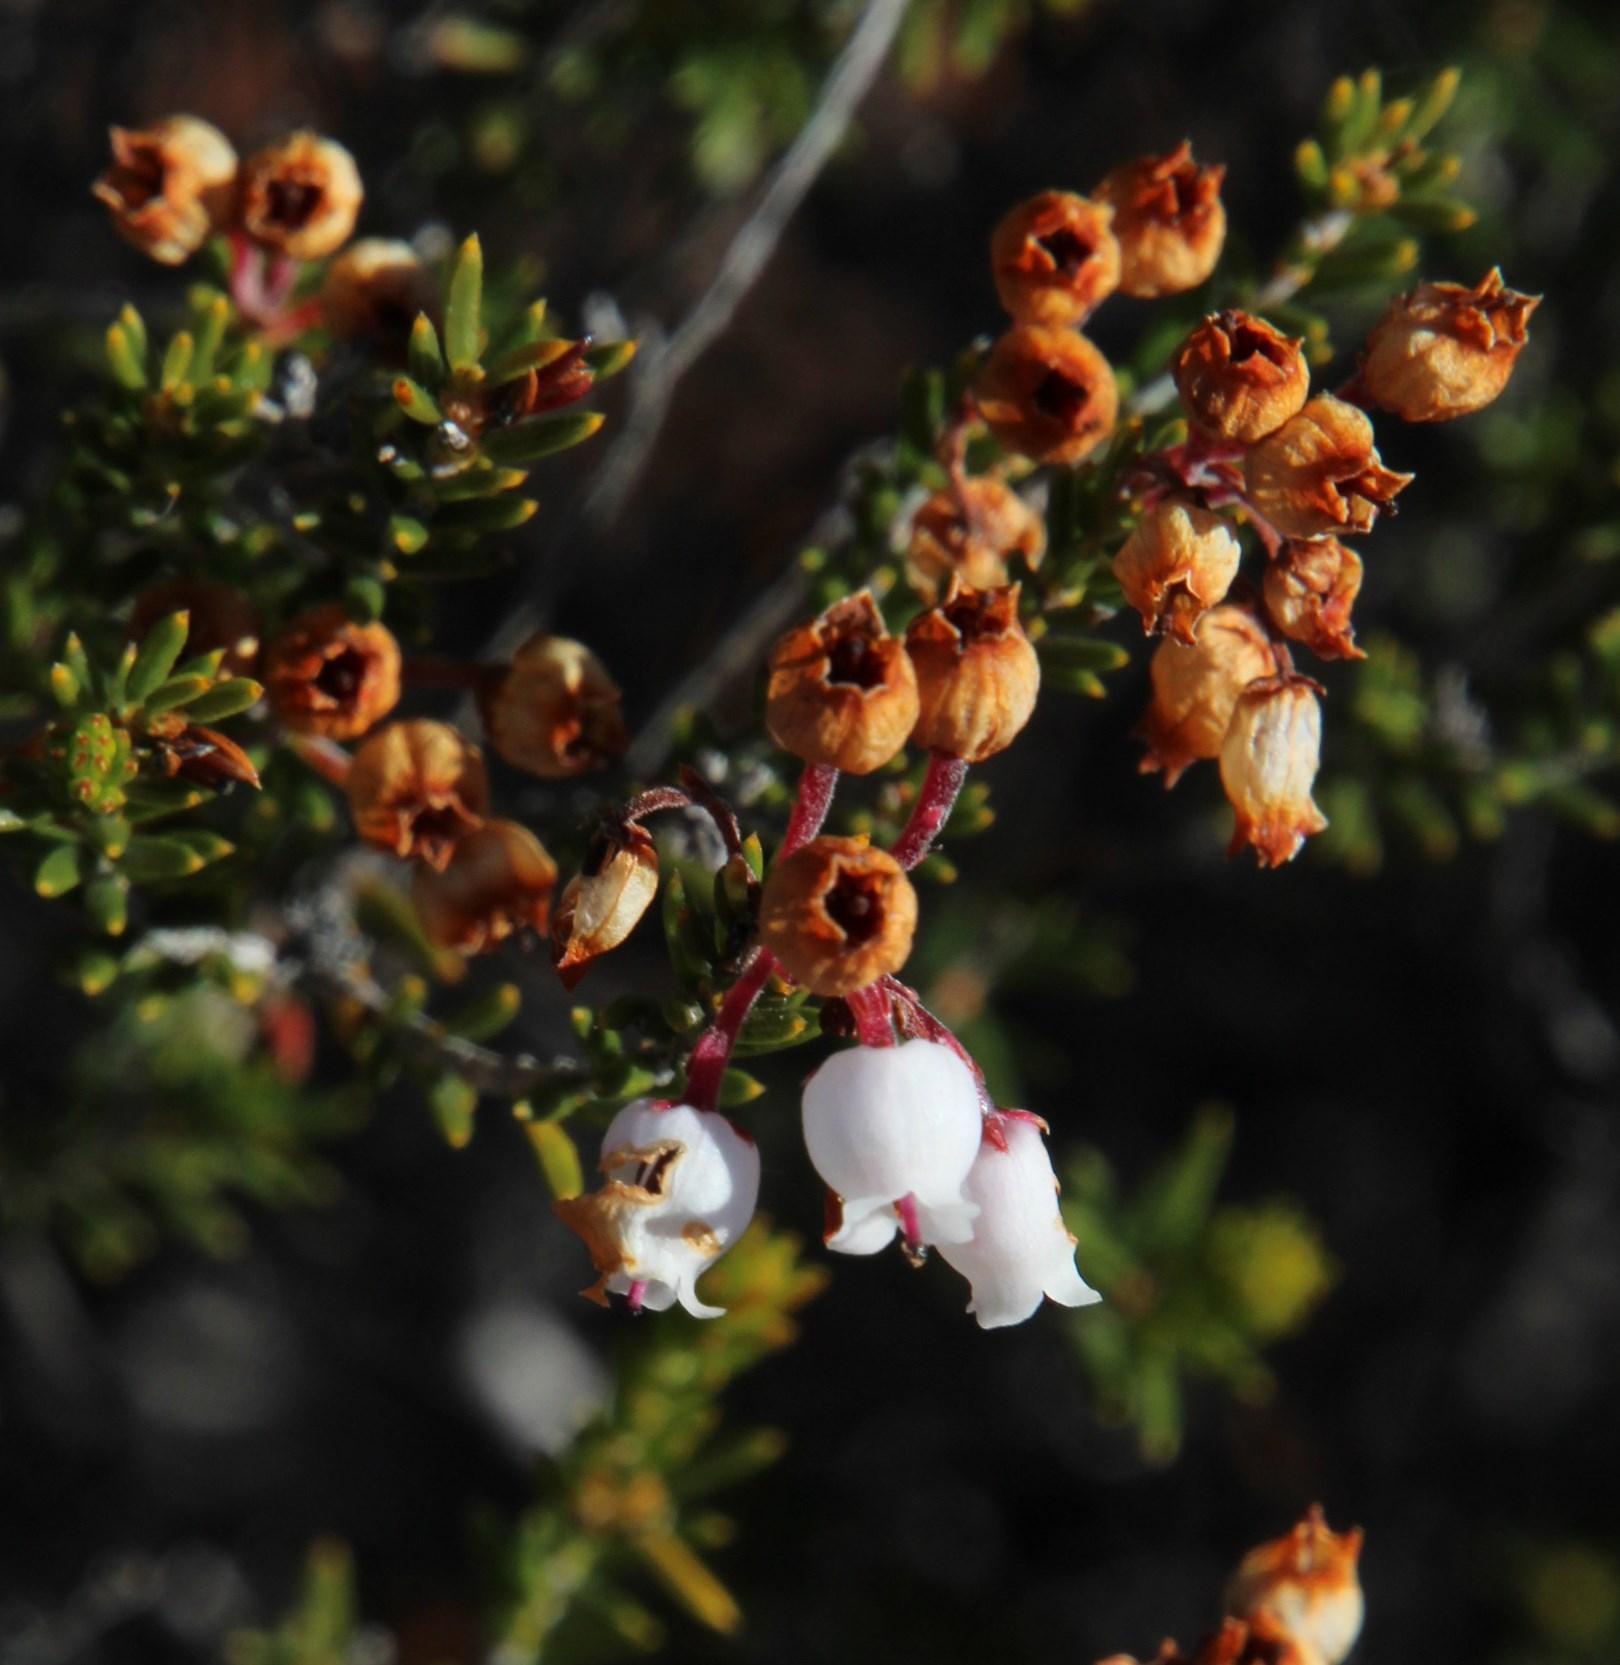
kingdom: Plantae
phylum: Tracheophyta
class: Magnoliopsida
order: Ericales
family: Ericaceae
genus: Erica
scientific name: Erica verecunda
